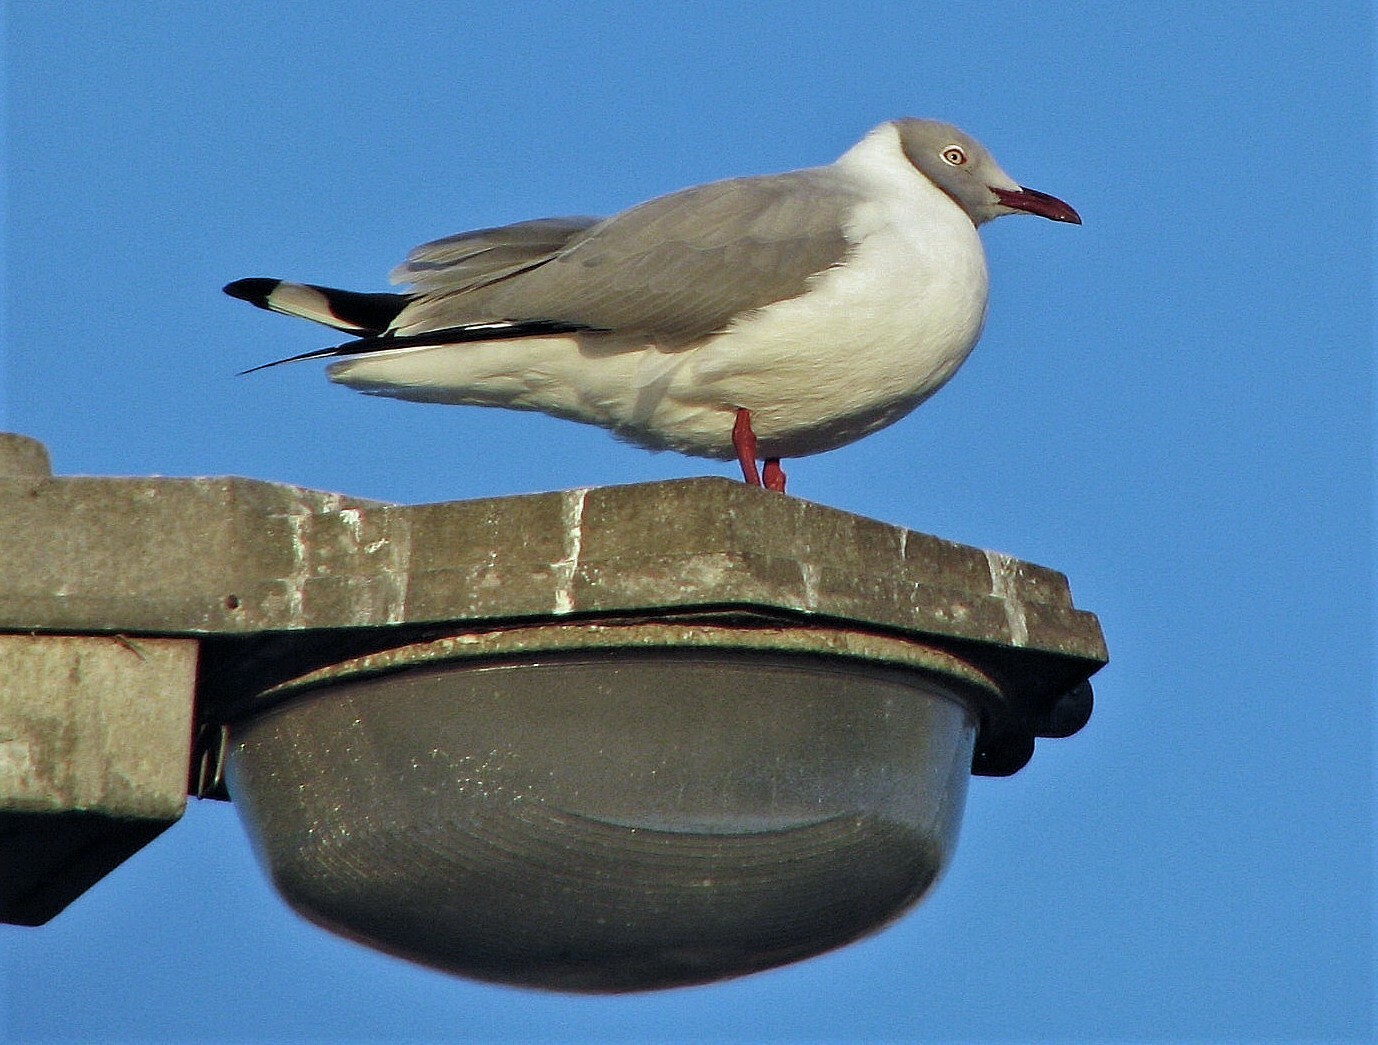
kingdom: Animalia
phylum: Chordata
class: Aves
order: Charadriiformes
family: Laridae
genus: Chroicocephalus
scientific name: Chroicocephalus cirrocephalus
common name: Grey-headed gull
